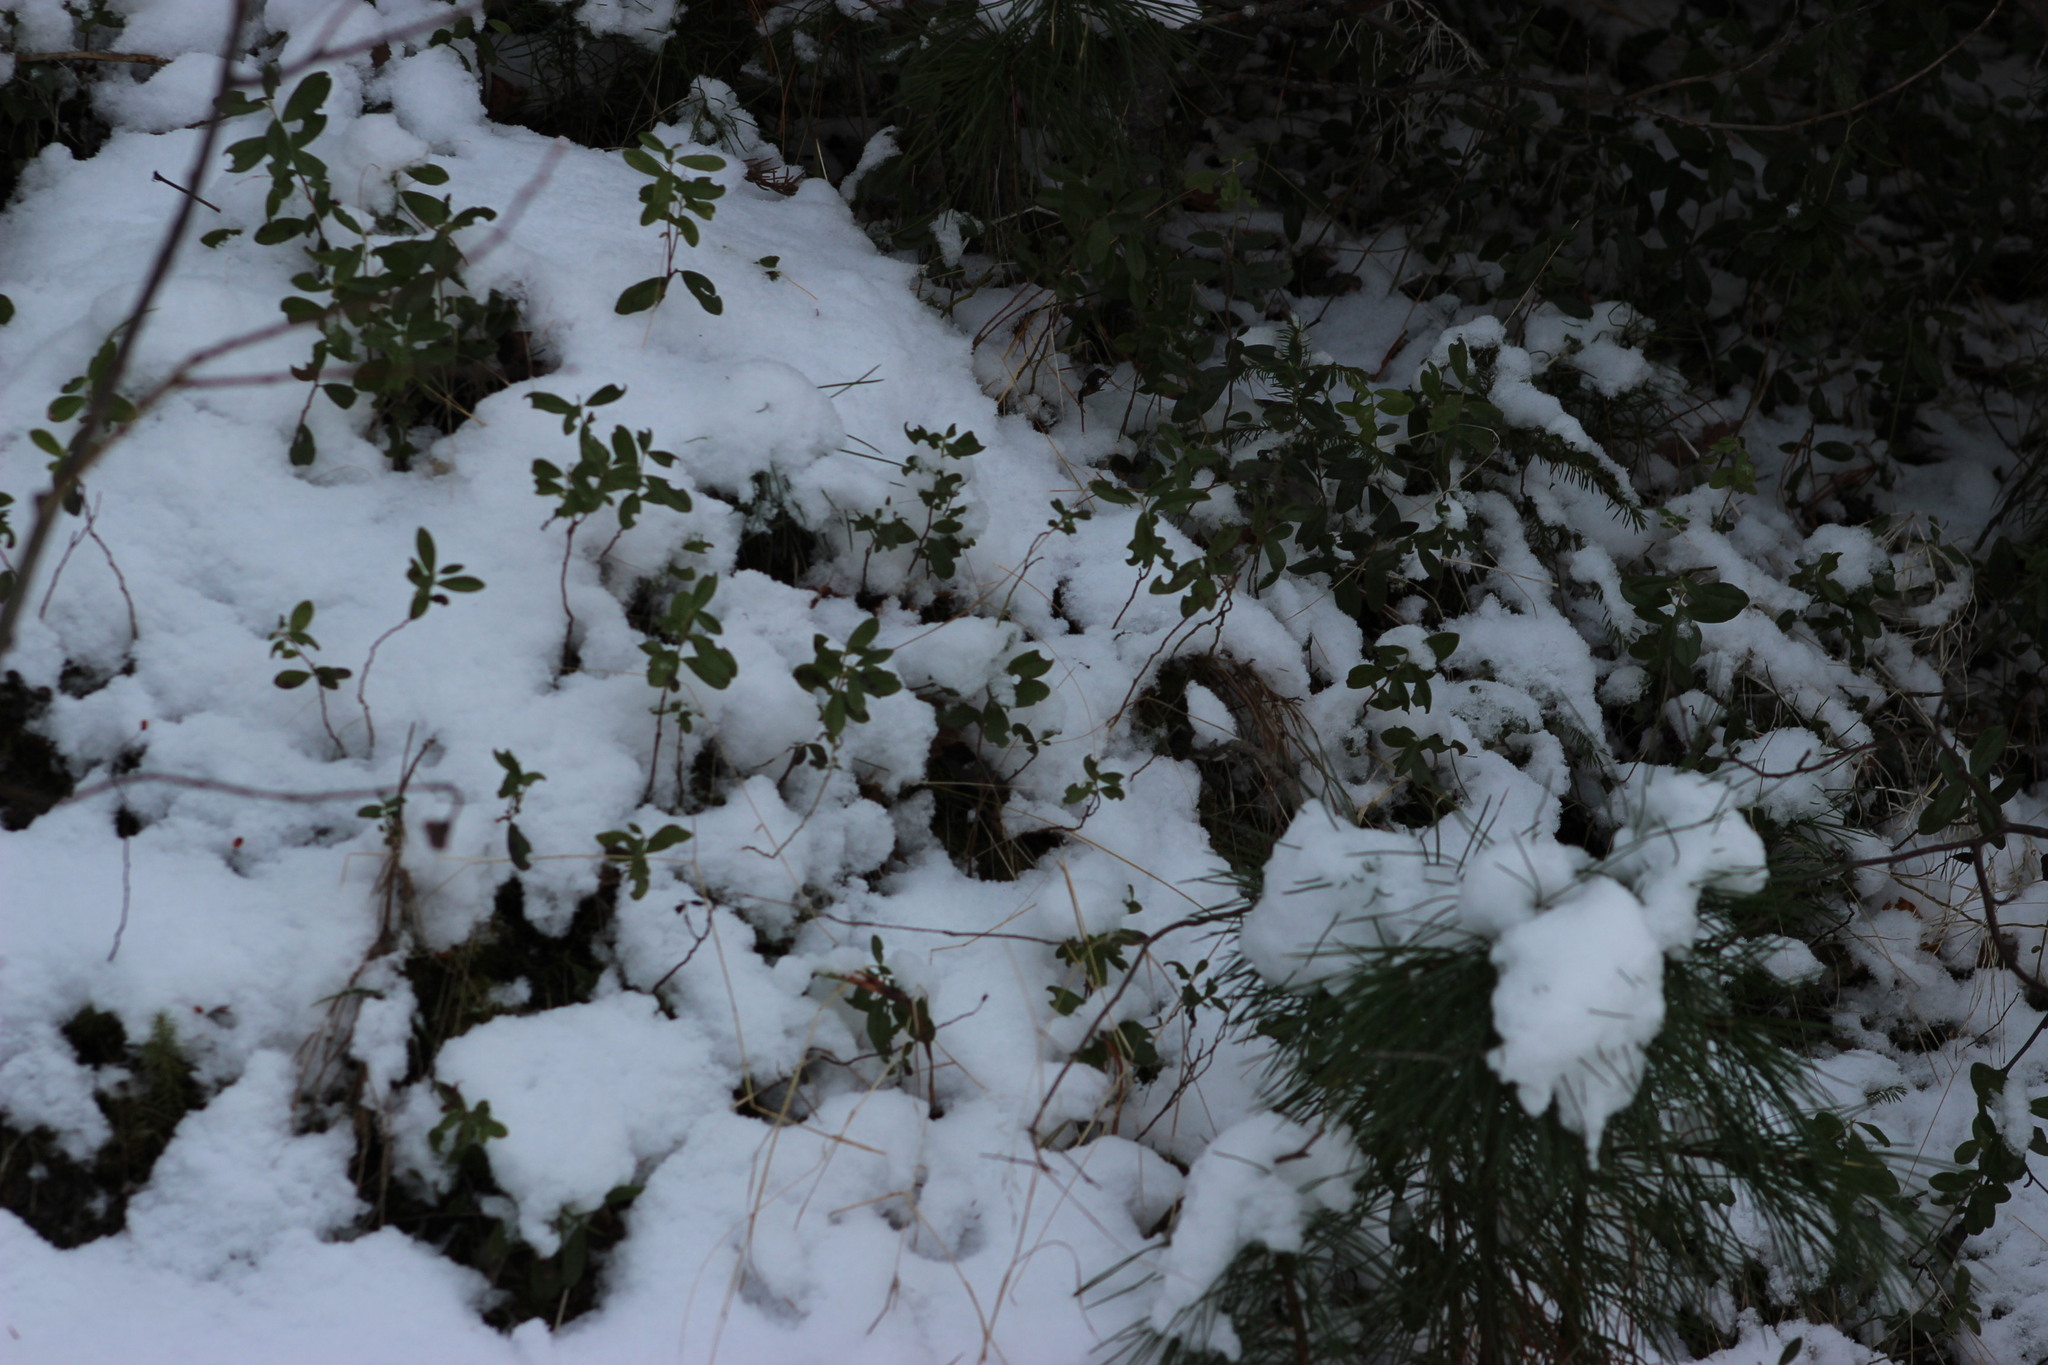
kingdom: Plantae
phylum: Tracheophyta
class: Magnoliopsida
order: Ericales
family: Ericaceae
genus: Vaccinium
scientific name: Vaccinium vitis-idaea
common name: Cowberry
